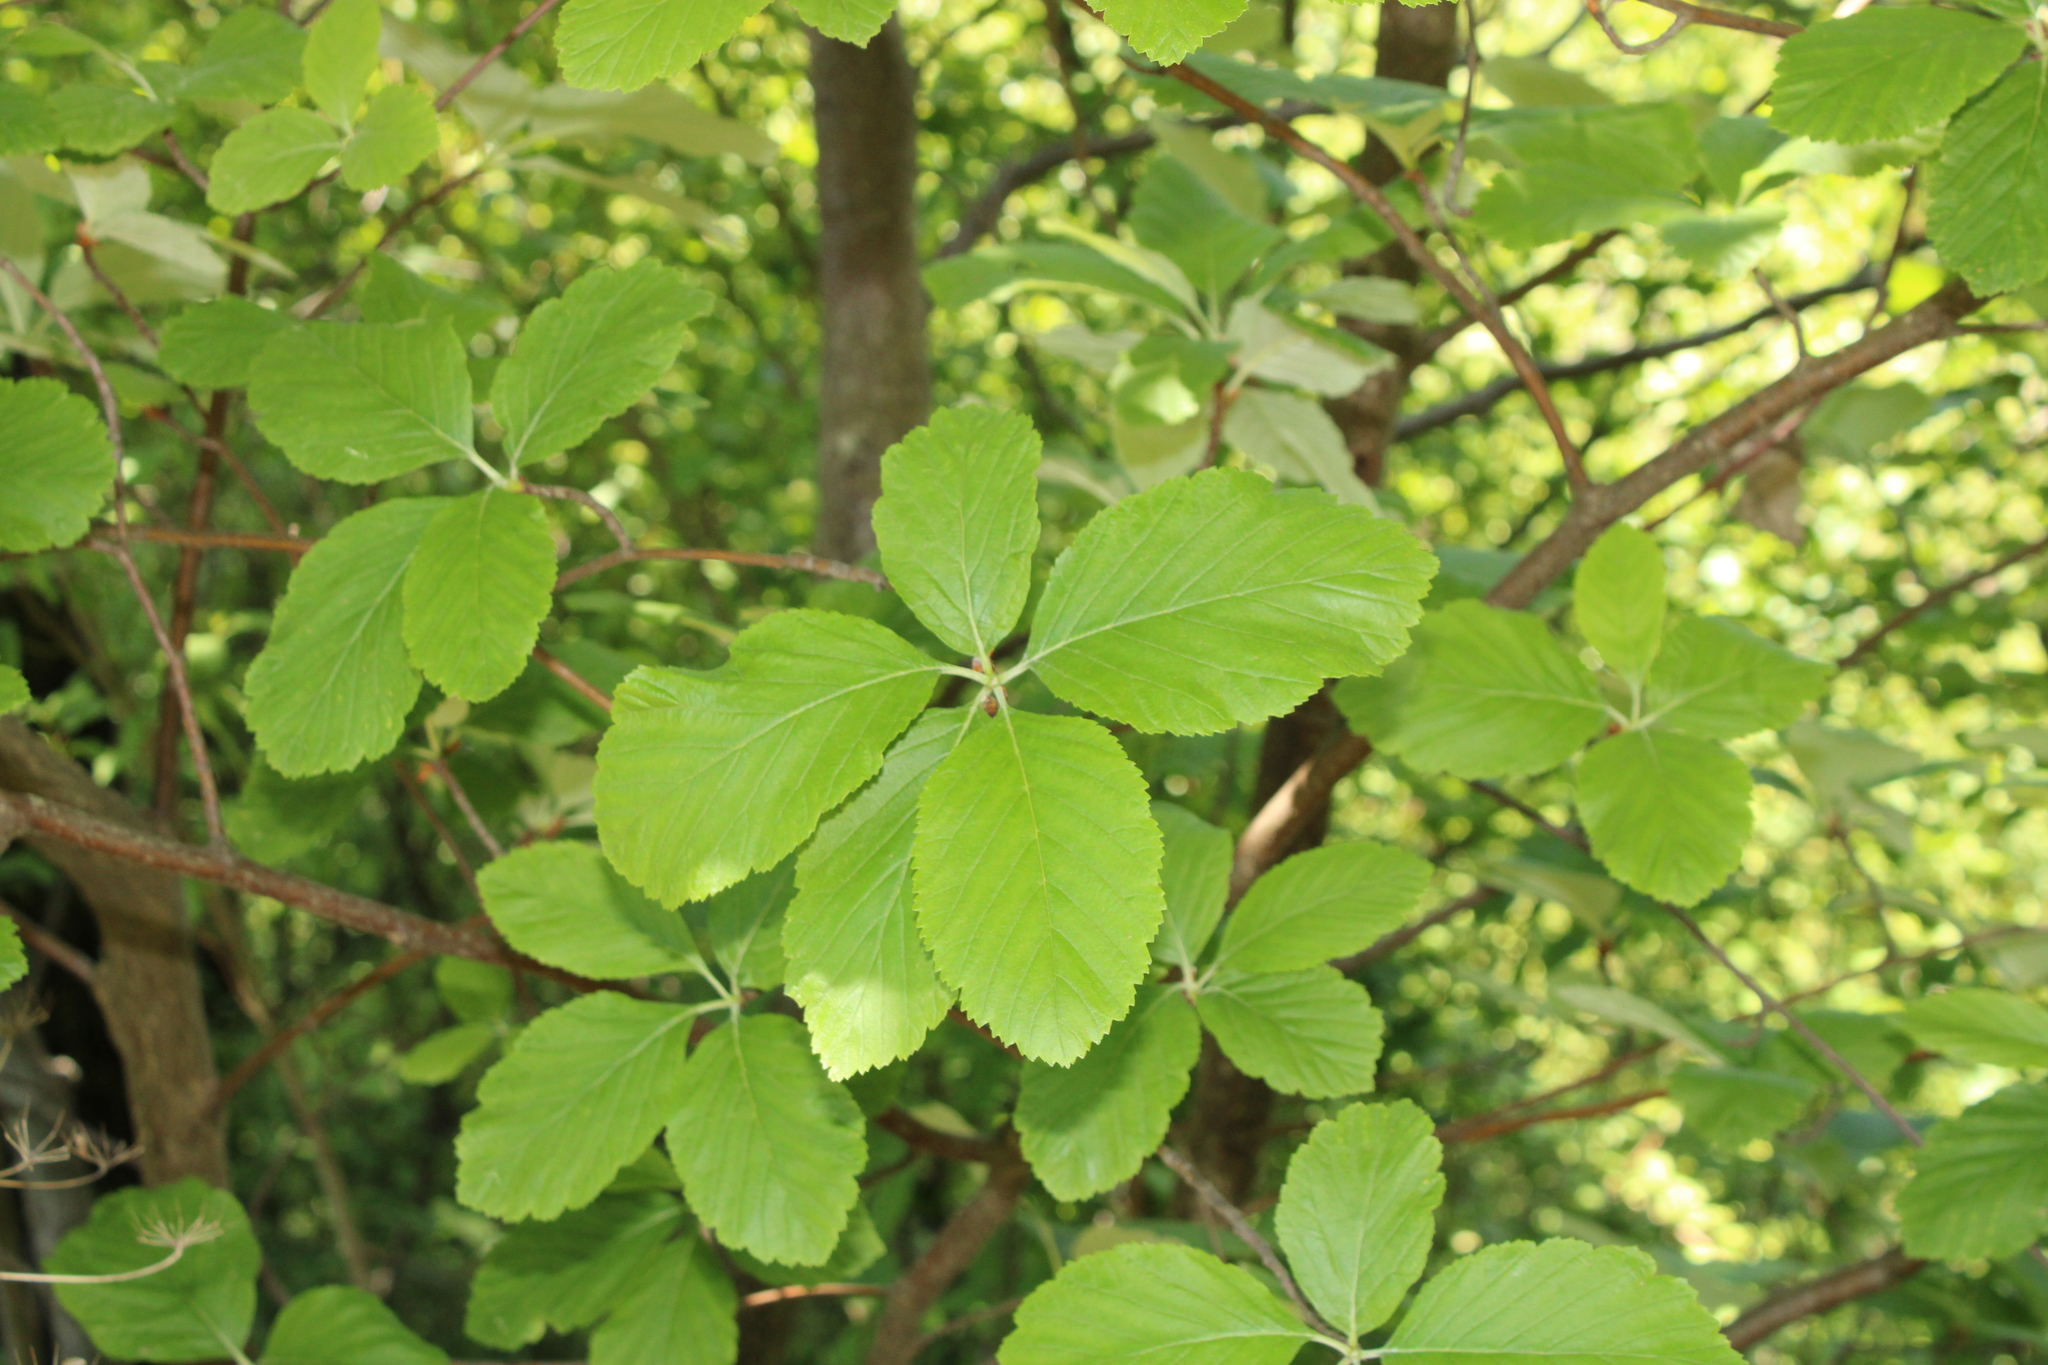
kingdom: Plantae
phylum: Tracheophyta
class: Magnoliopsida
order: Rosales
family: Rosaceae
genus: Aria
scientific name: Aria edulis
